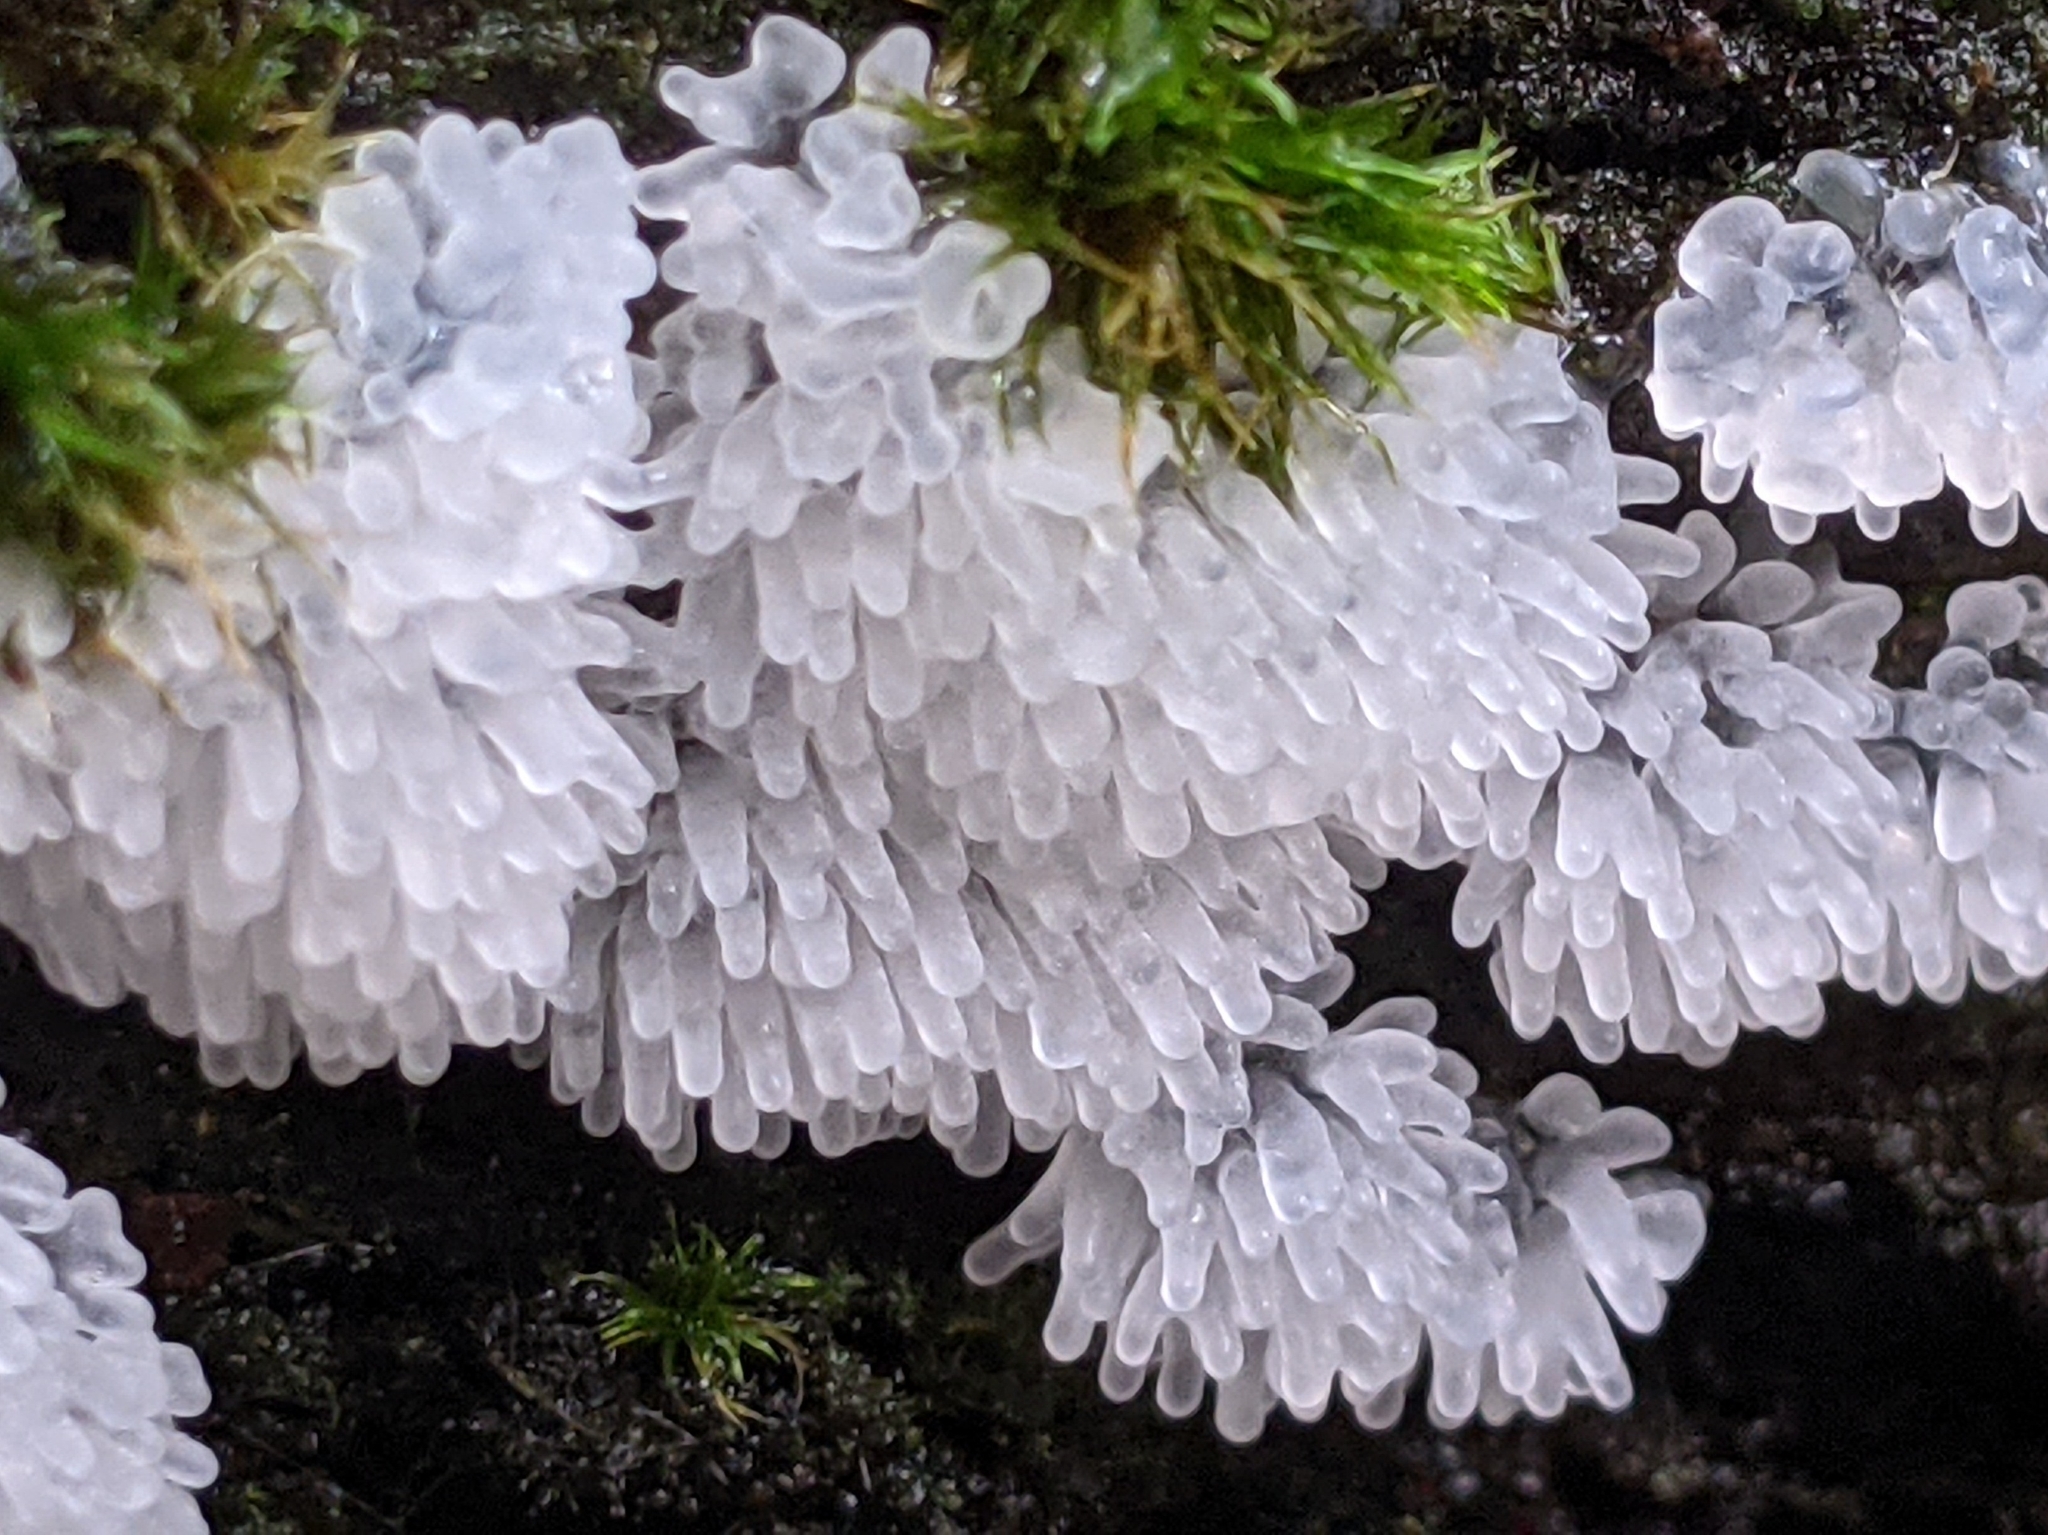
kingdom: Protozoa
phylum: Mycetozoa
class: Protosteliomycetes
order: Ceratiomyxales
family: Ceratiomyxaceae
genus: Ceratiomyxa
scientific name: Ceratiomyxa fruticulosa
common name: Honeycomb coral slime mold
